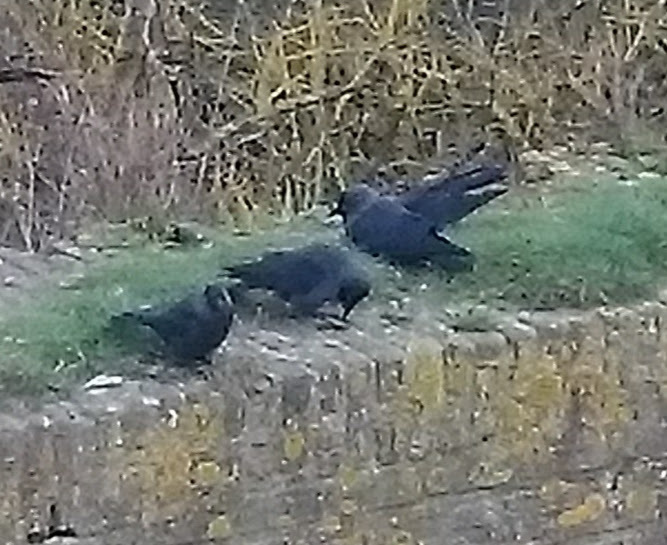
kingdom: Animalia
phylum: Chordata
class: Aves
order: Passeriformes
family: Corvidae
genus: Coloeus
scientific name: Coloeus monedula
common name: Western jackdaw
